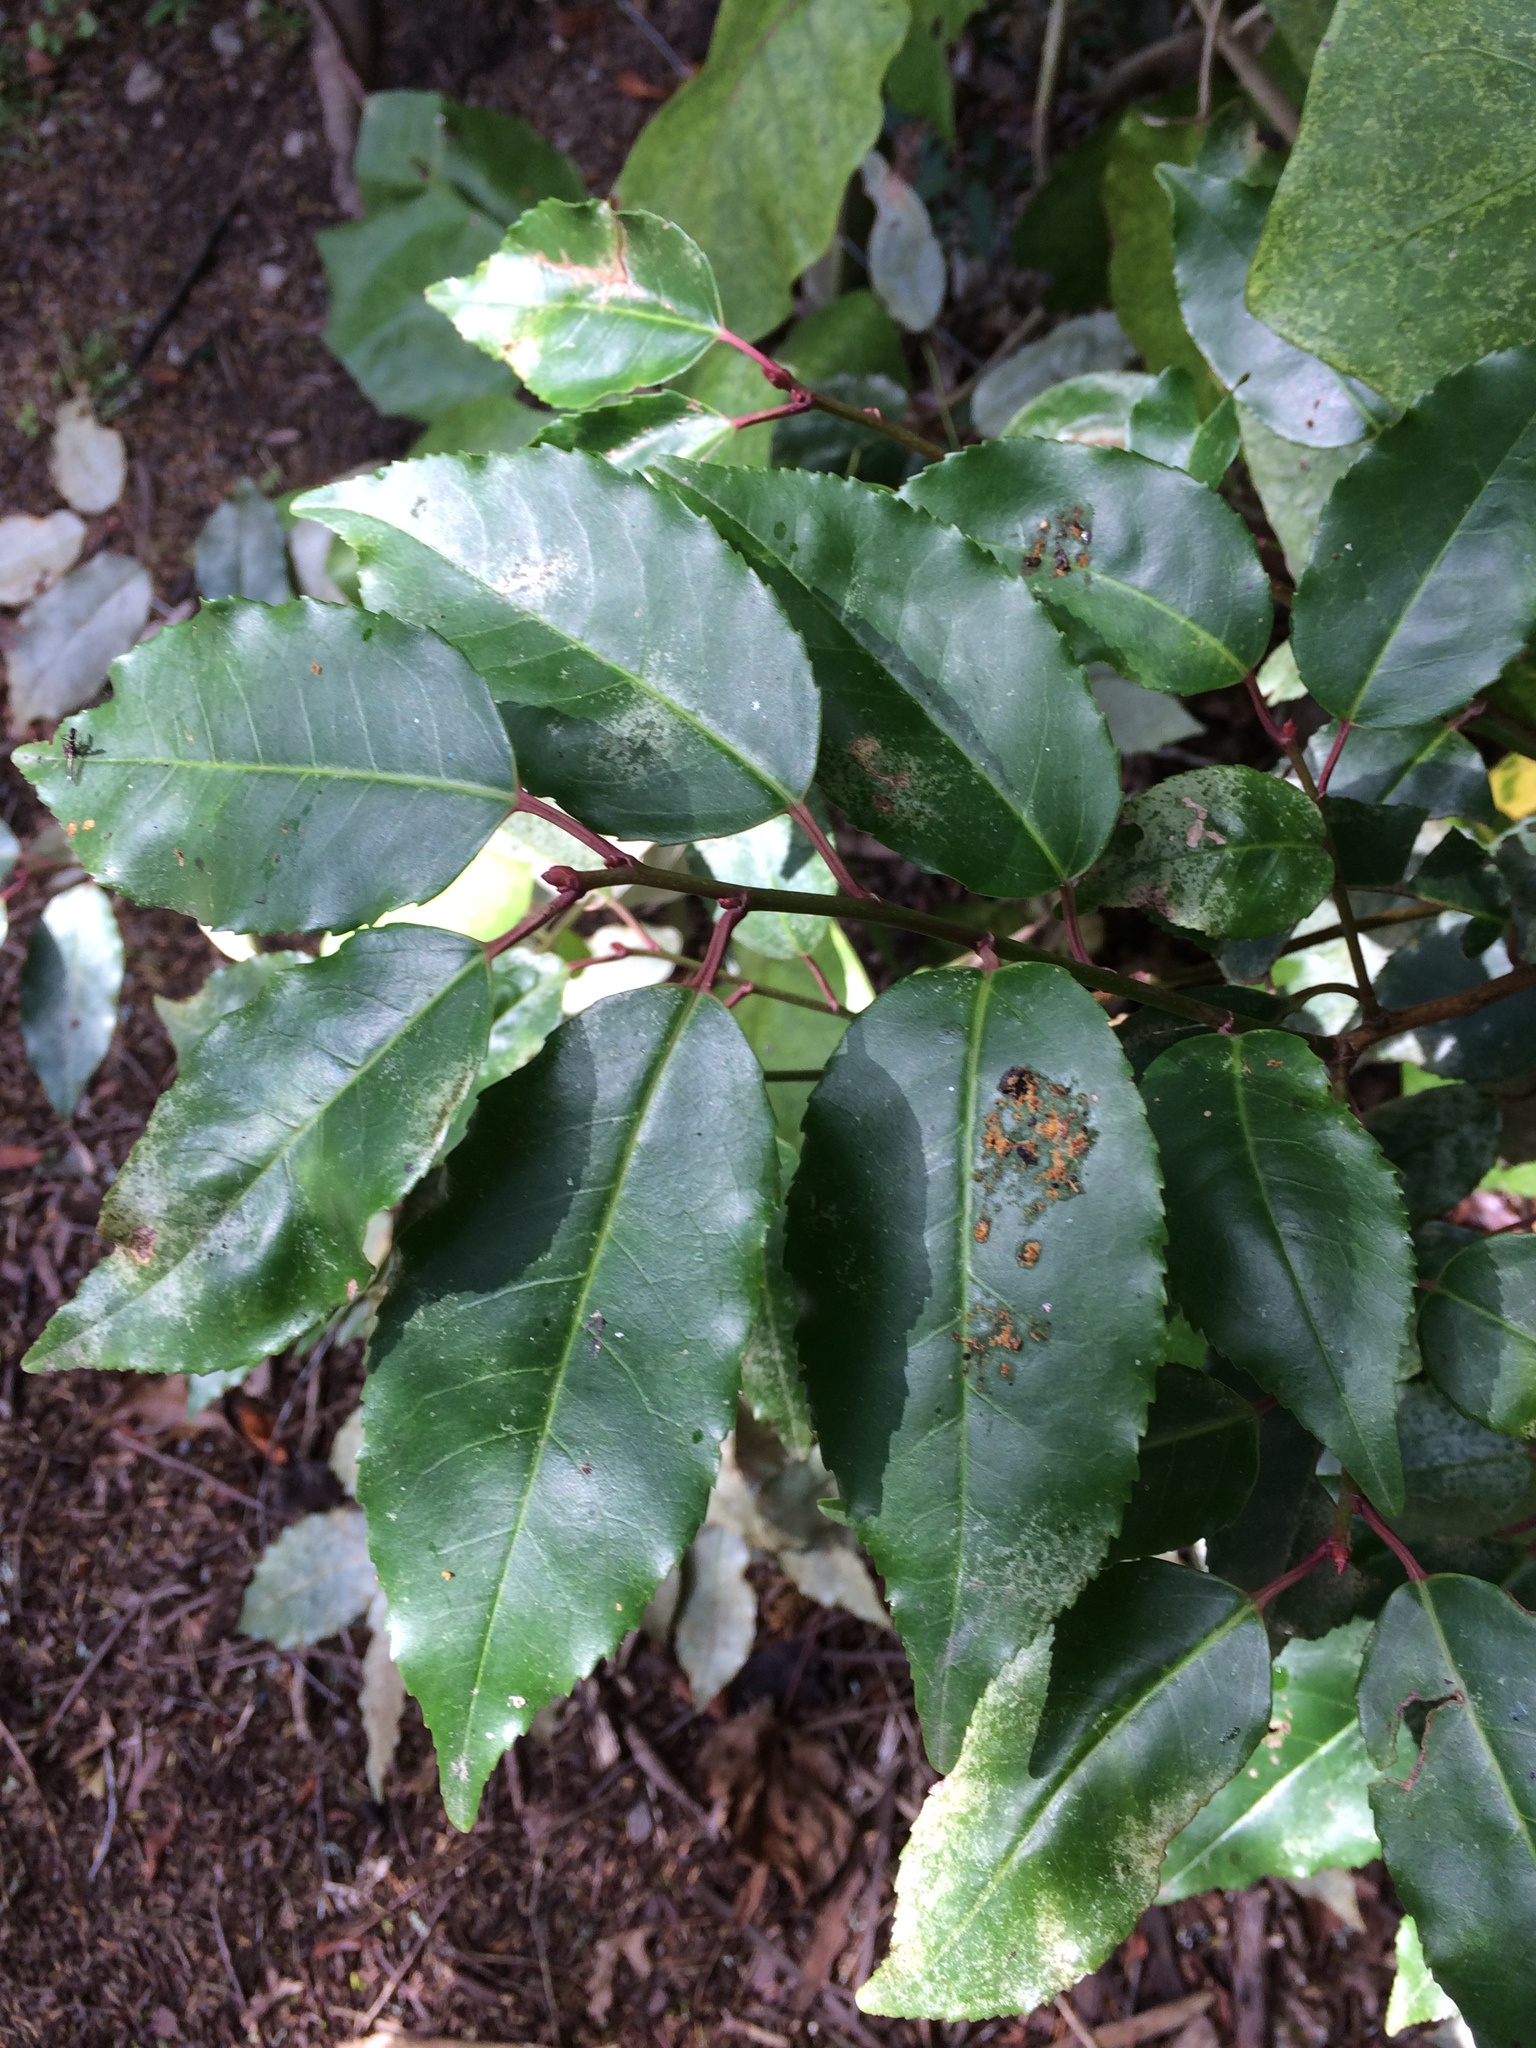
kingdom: Plantae
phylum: Tracheophyta
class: Magnoliopsida
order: Rosales
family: Rosaceae
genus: Prunus
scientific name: Prunus lusitanica
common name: Portugal laurel
